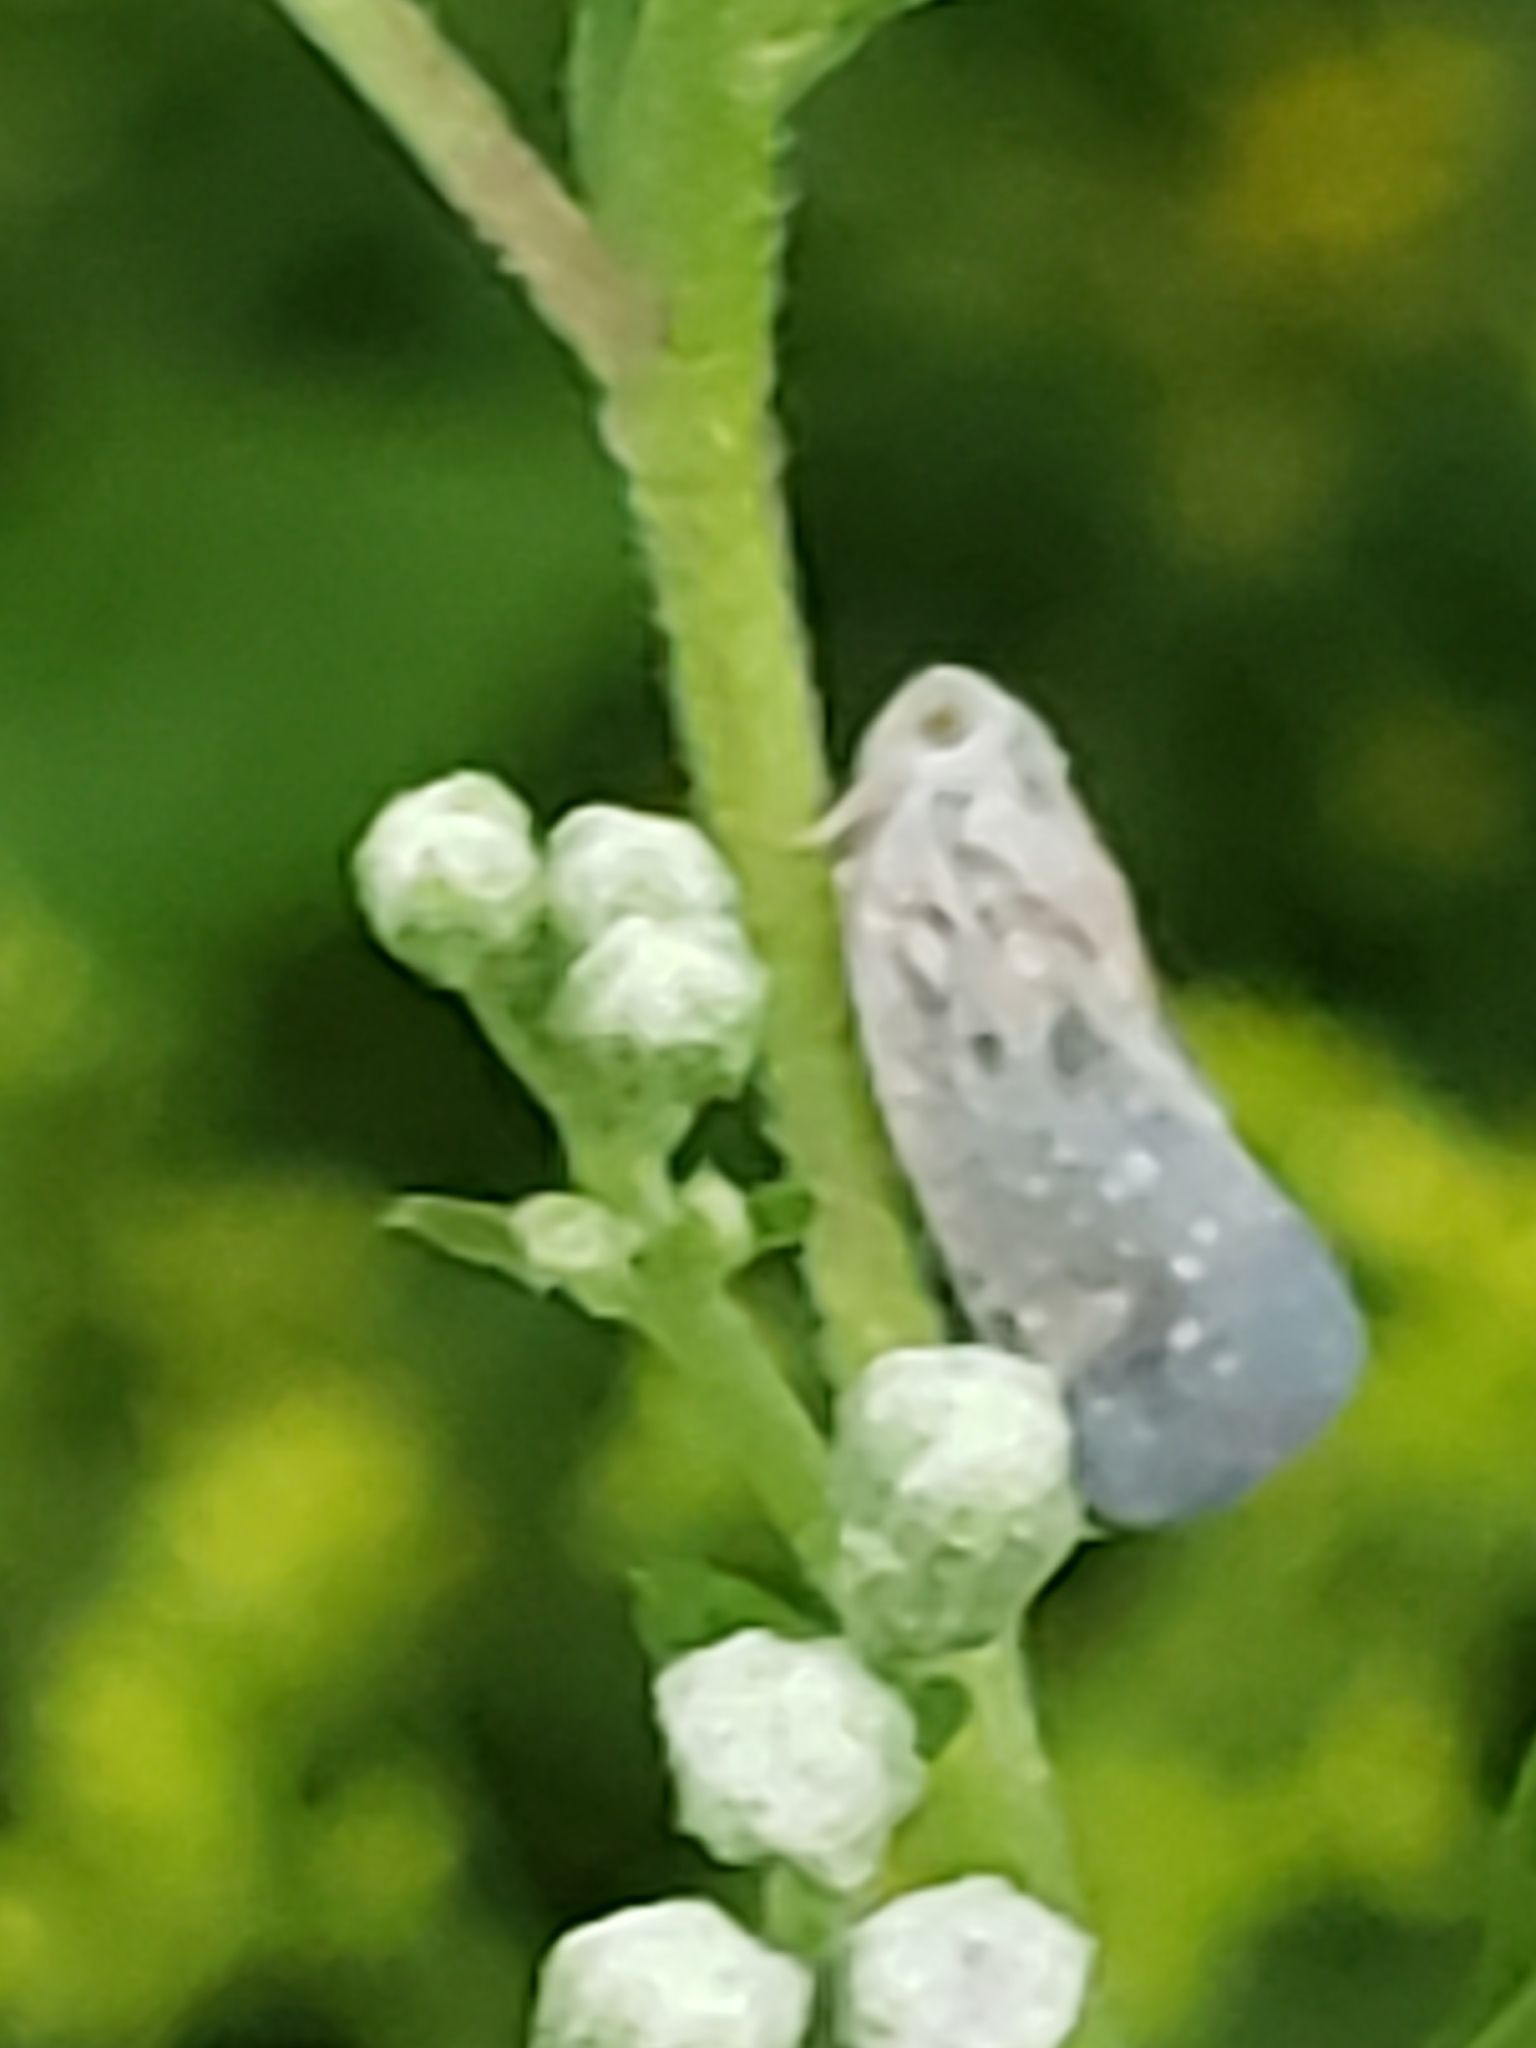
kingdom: Animalia
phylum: Arthropoda
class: Insecta
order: Hemiptera
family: Flatidae
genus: Metcalfa
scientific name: Metcalfa pruinosa
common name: Citrus flatid planthopper
